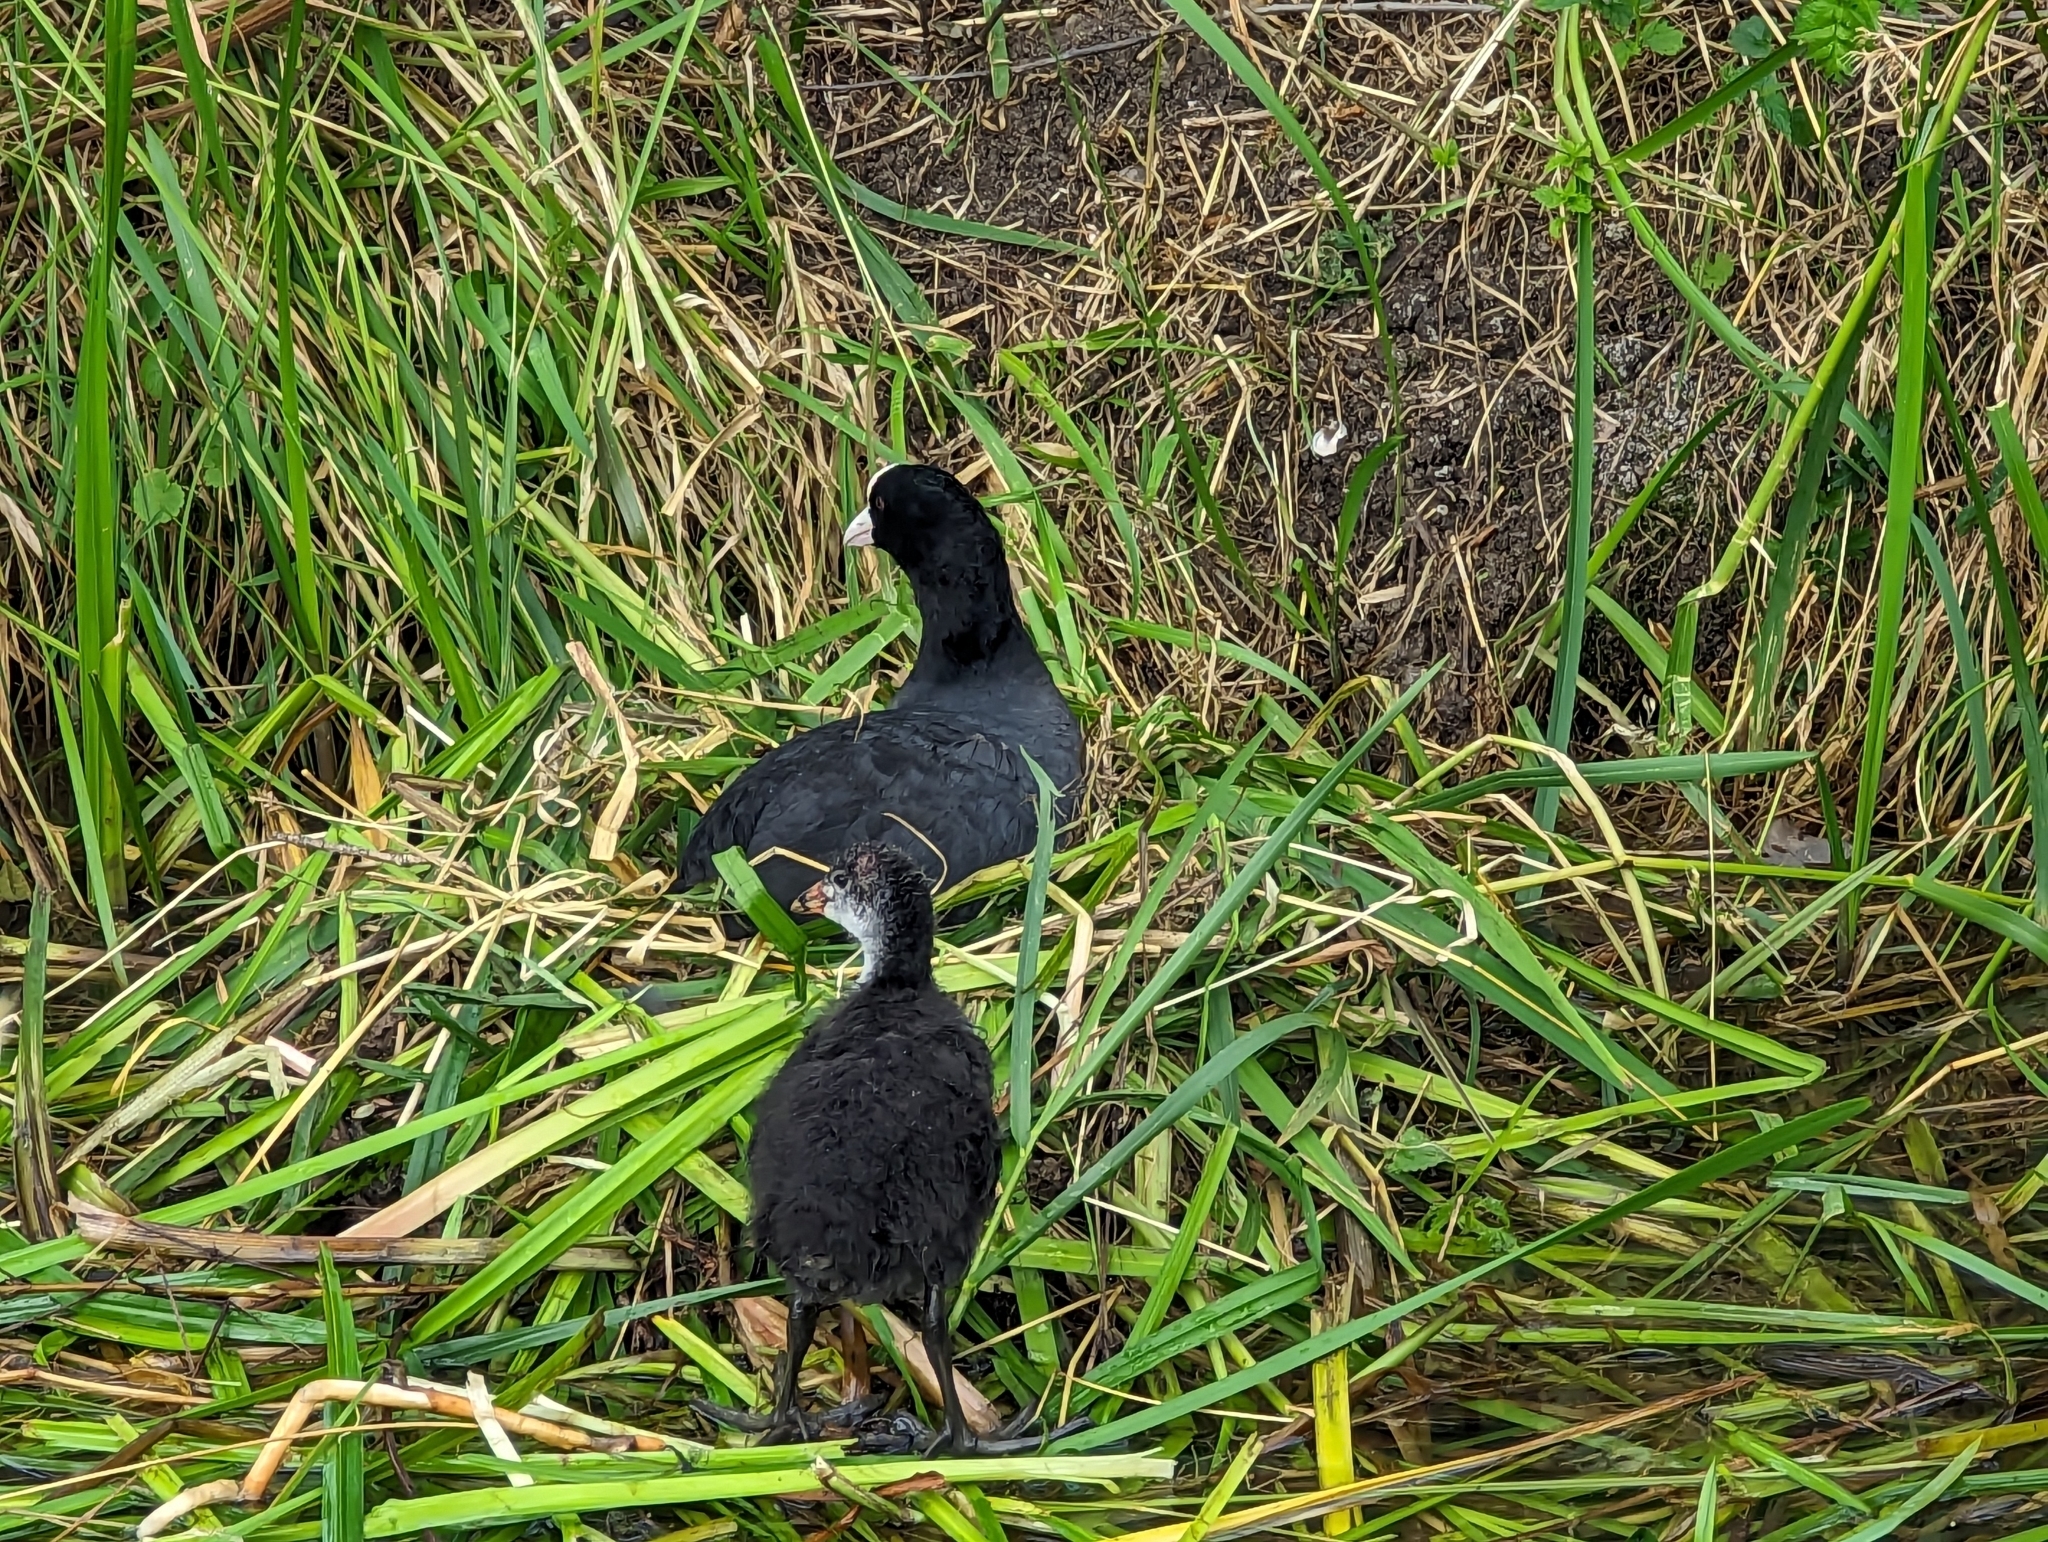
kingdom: Animalia
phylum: Chordata
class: Aves
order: Gruiformes
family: Rallidae
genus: Fulica
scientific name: Fulica atra
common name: Eurasian coot
